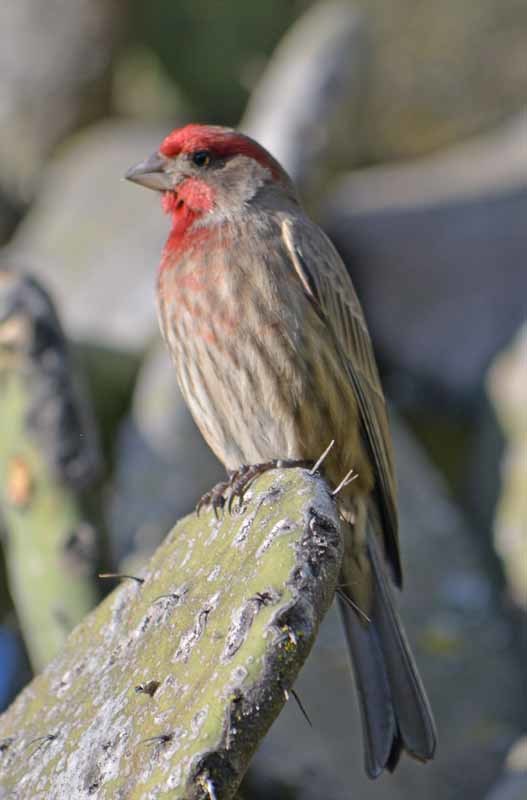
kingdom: Animalia
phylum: Chordata
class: Aves
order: Passeriformes
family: Fringillidae
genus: Haemorhous
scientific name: Haemorhous mexicanus
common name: House finch
